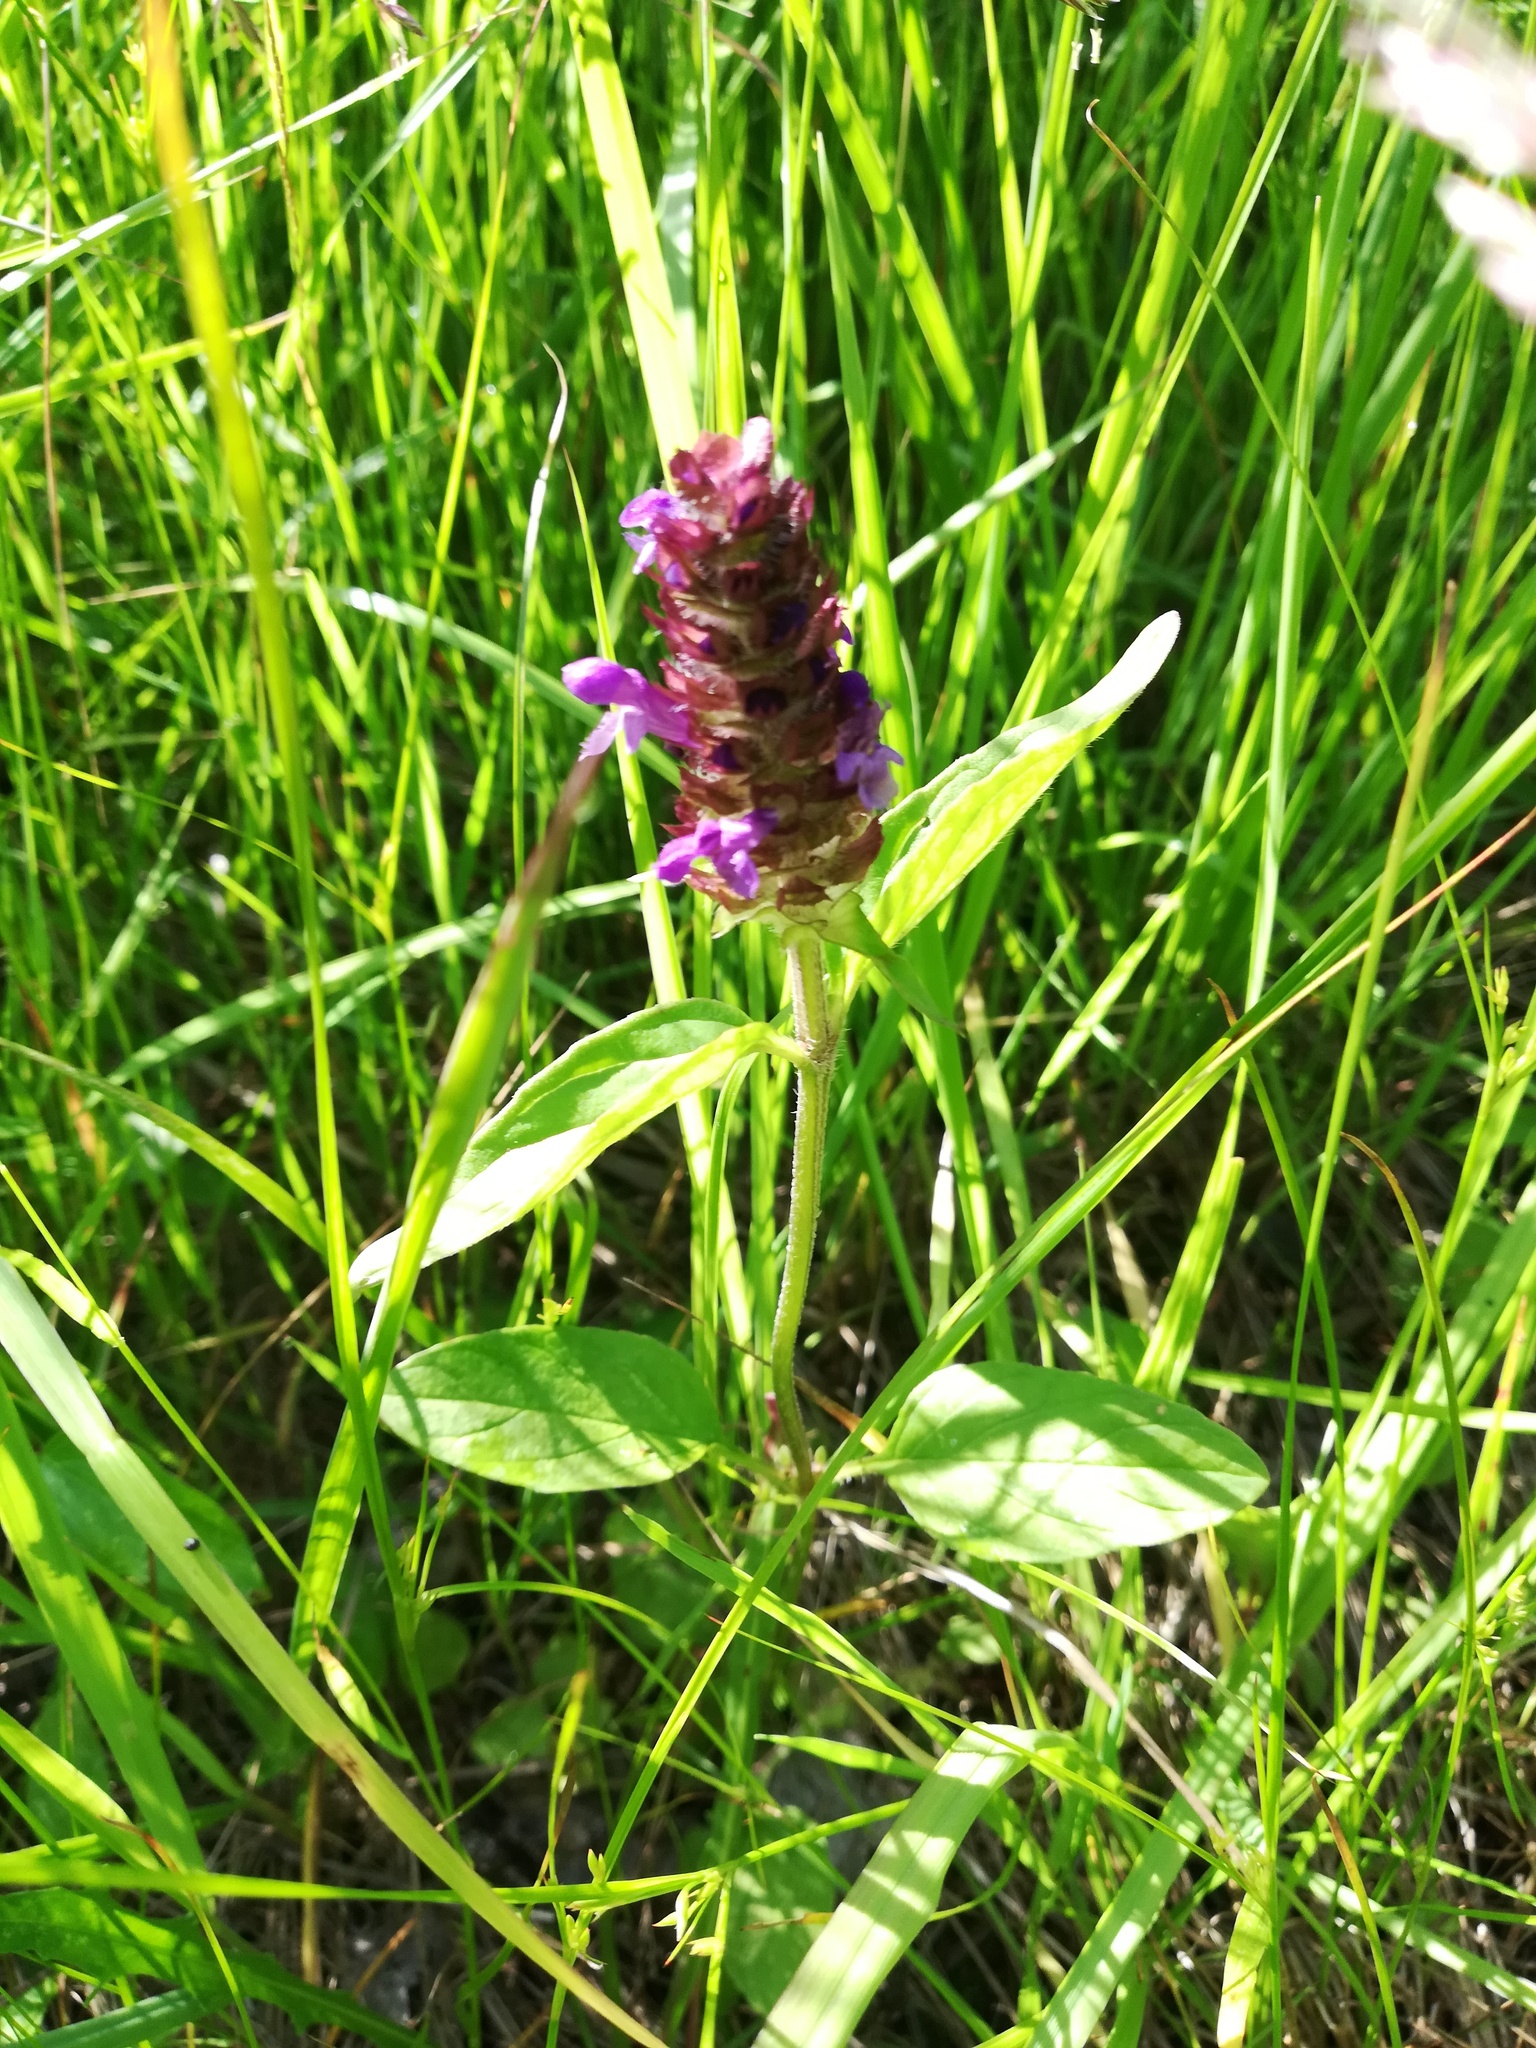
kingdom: Plantae
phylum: Tracheophyta
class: Magnoliopsida
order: Lamiales
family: Lamiaceae
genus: Prunella
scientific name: Prunella vulgaris
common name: Heal-all
